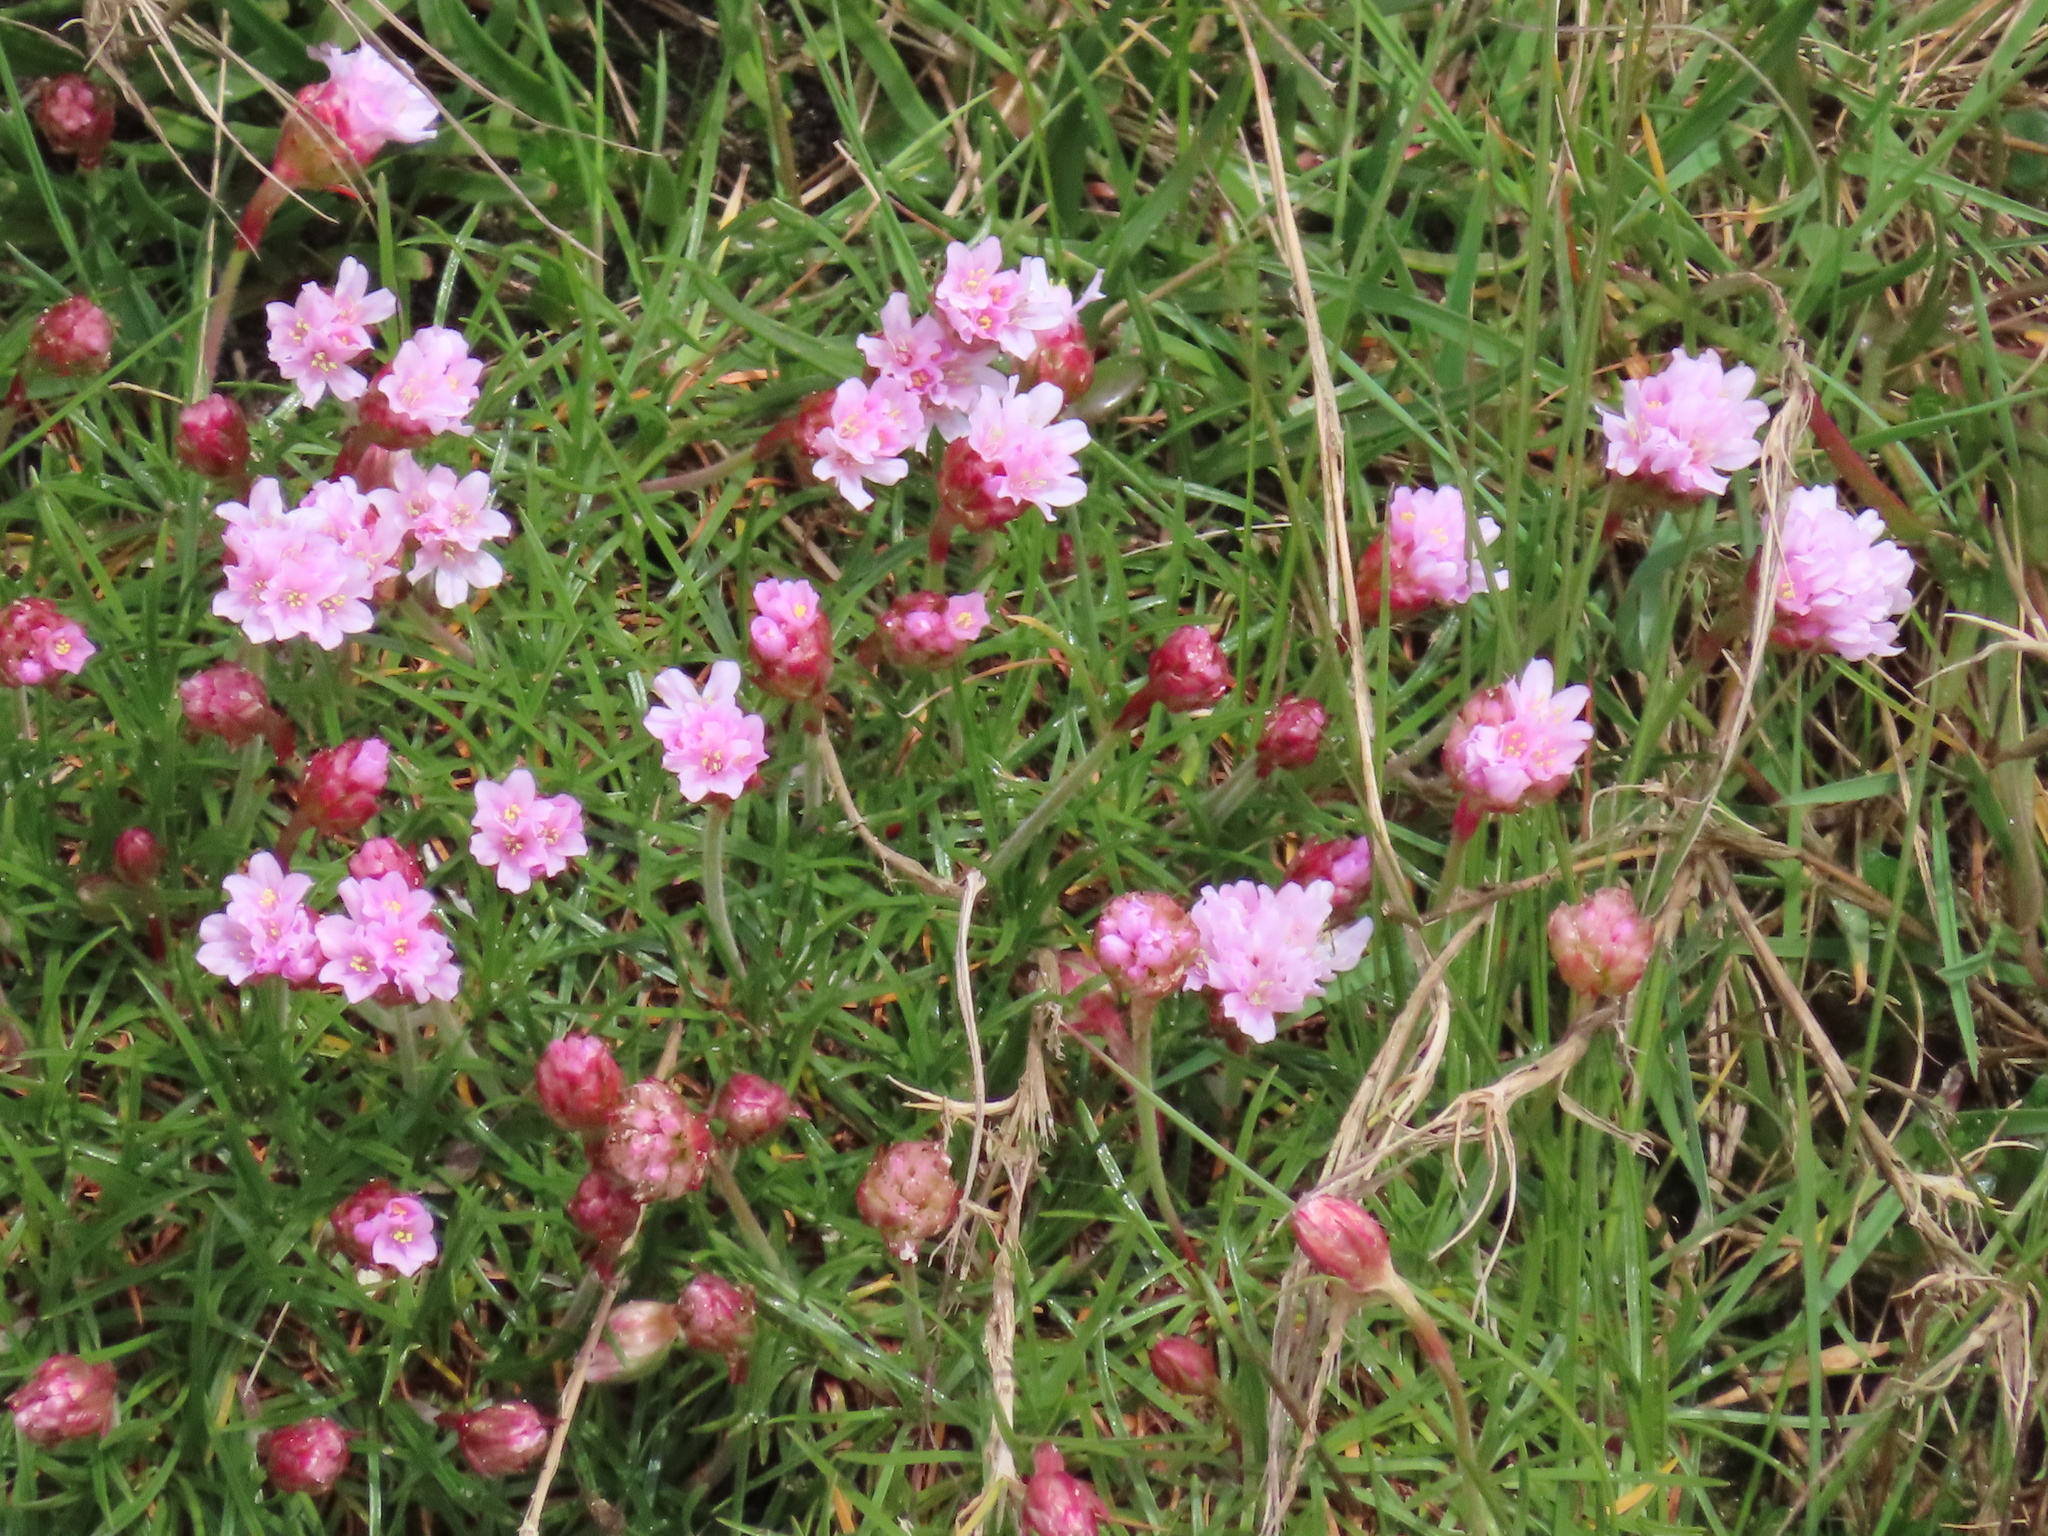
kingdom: Plantae
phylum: Tracheophyta
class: Magnoliopsida
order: Caryophyllales
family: Plumbaginaceae
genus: Armeria
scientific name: Armeria maritima
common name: Thrift
